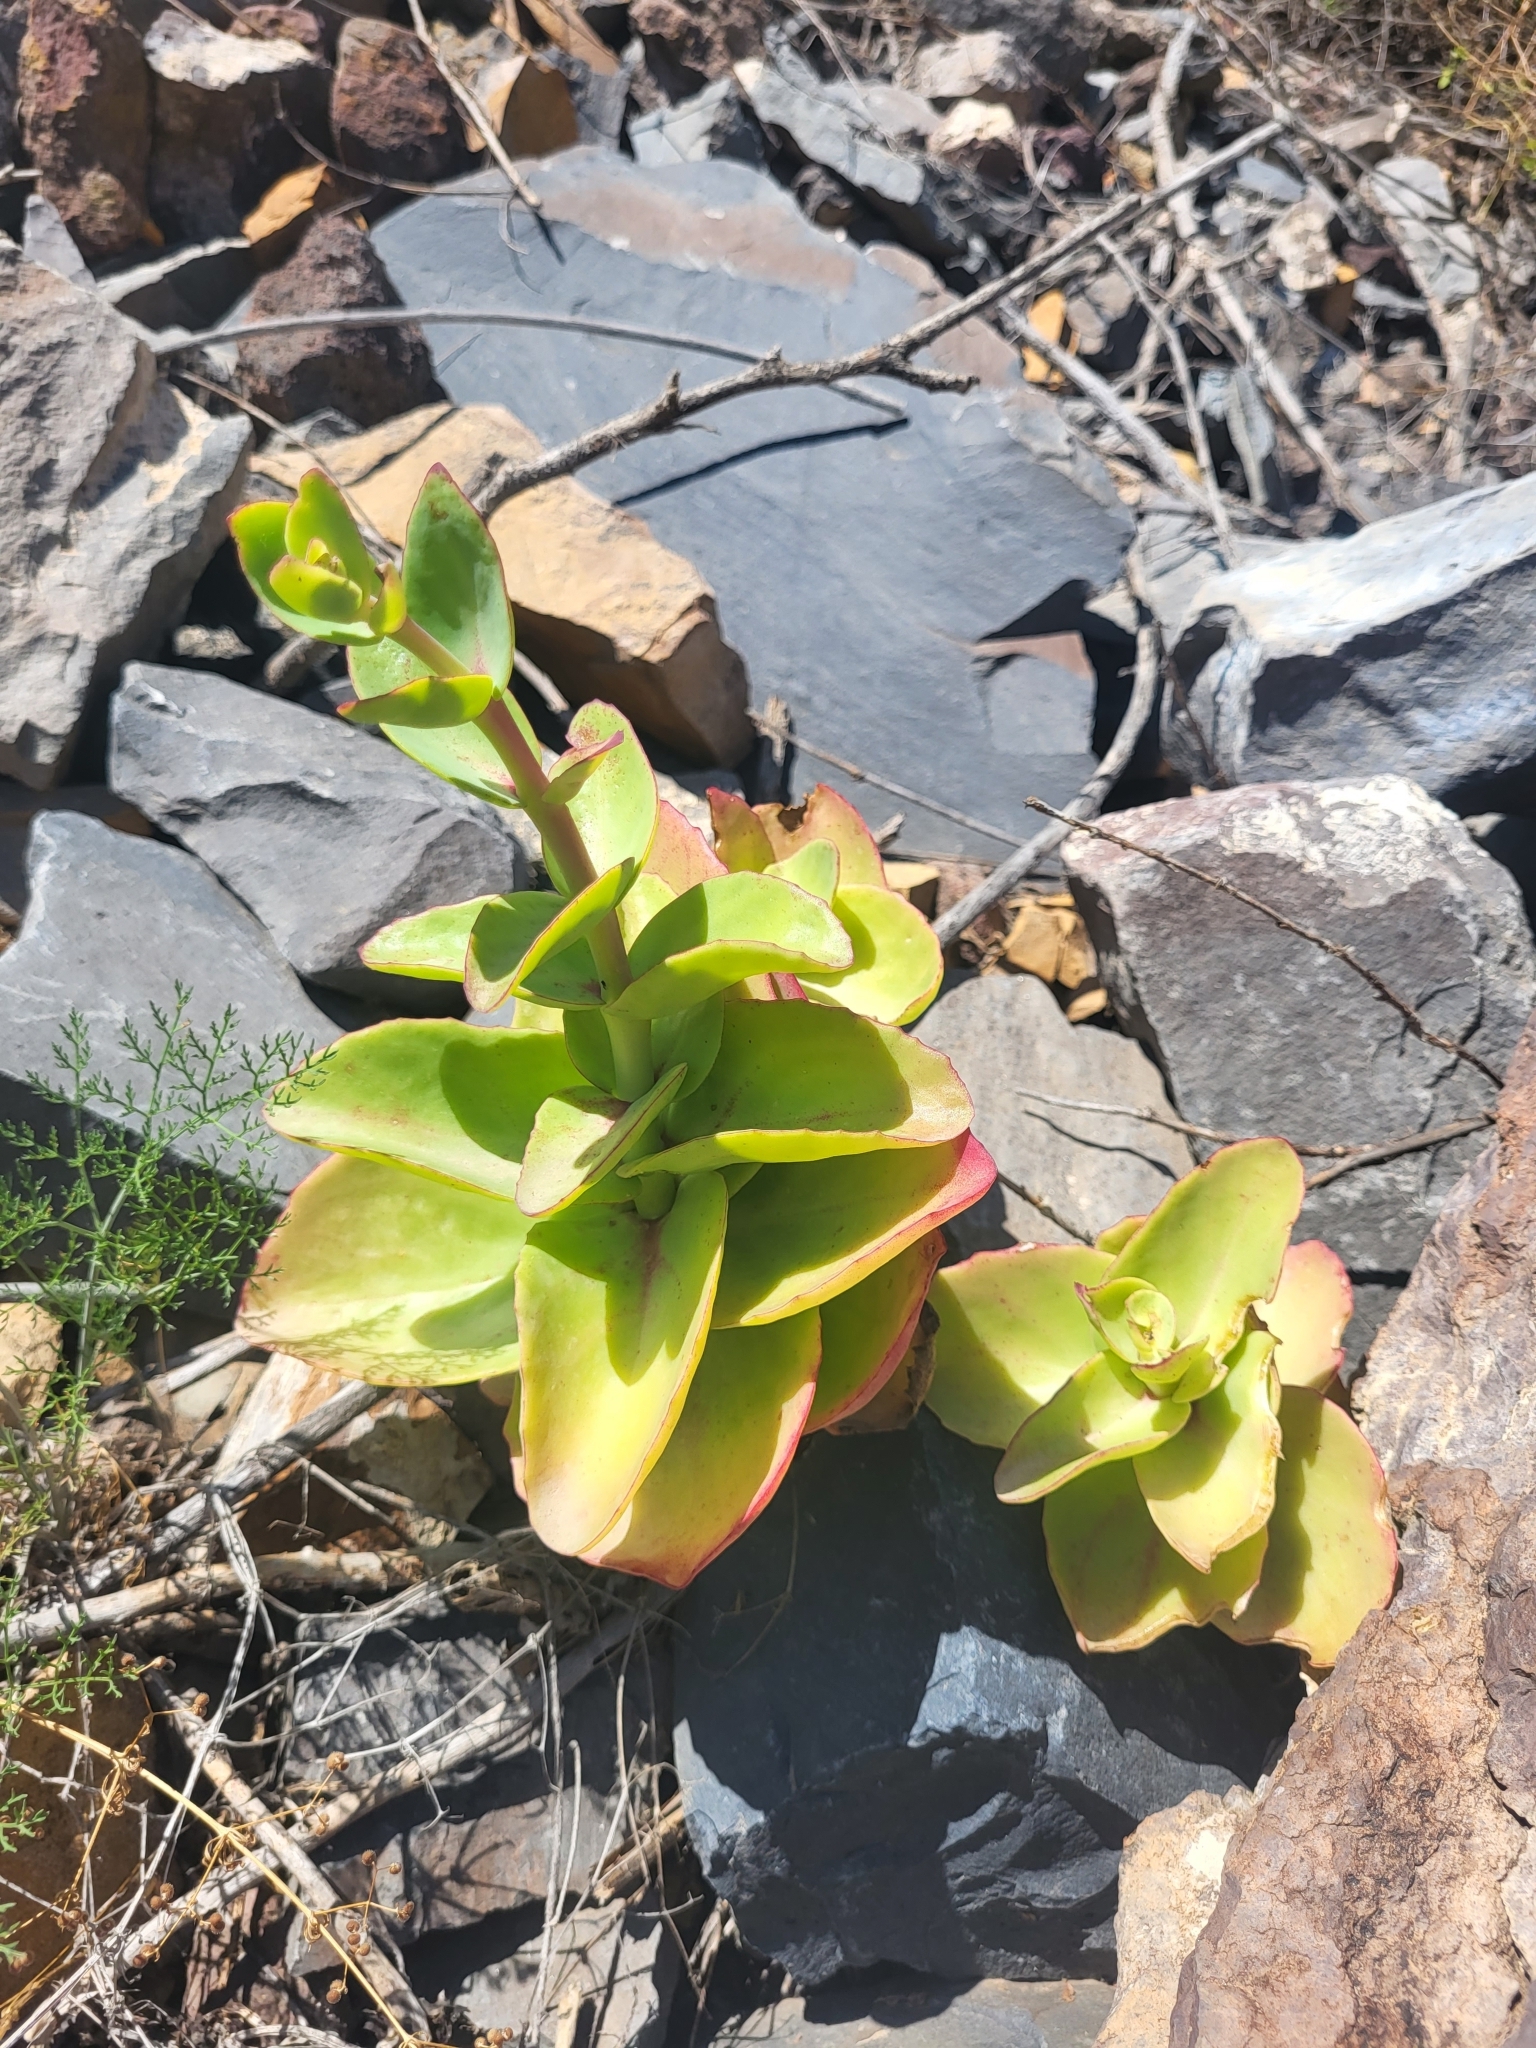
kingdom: Plantae
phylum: Tracheophyta
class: Magnoliopsida
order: Saxifragales
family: Crassulaceae
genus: Hylotelephium
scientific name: Hylotelephium maximum
